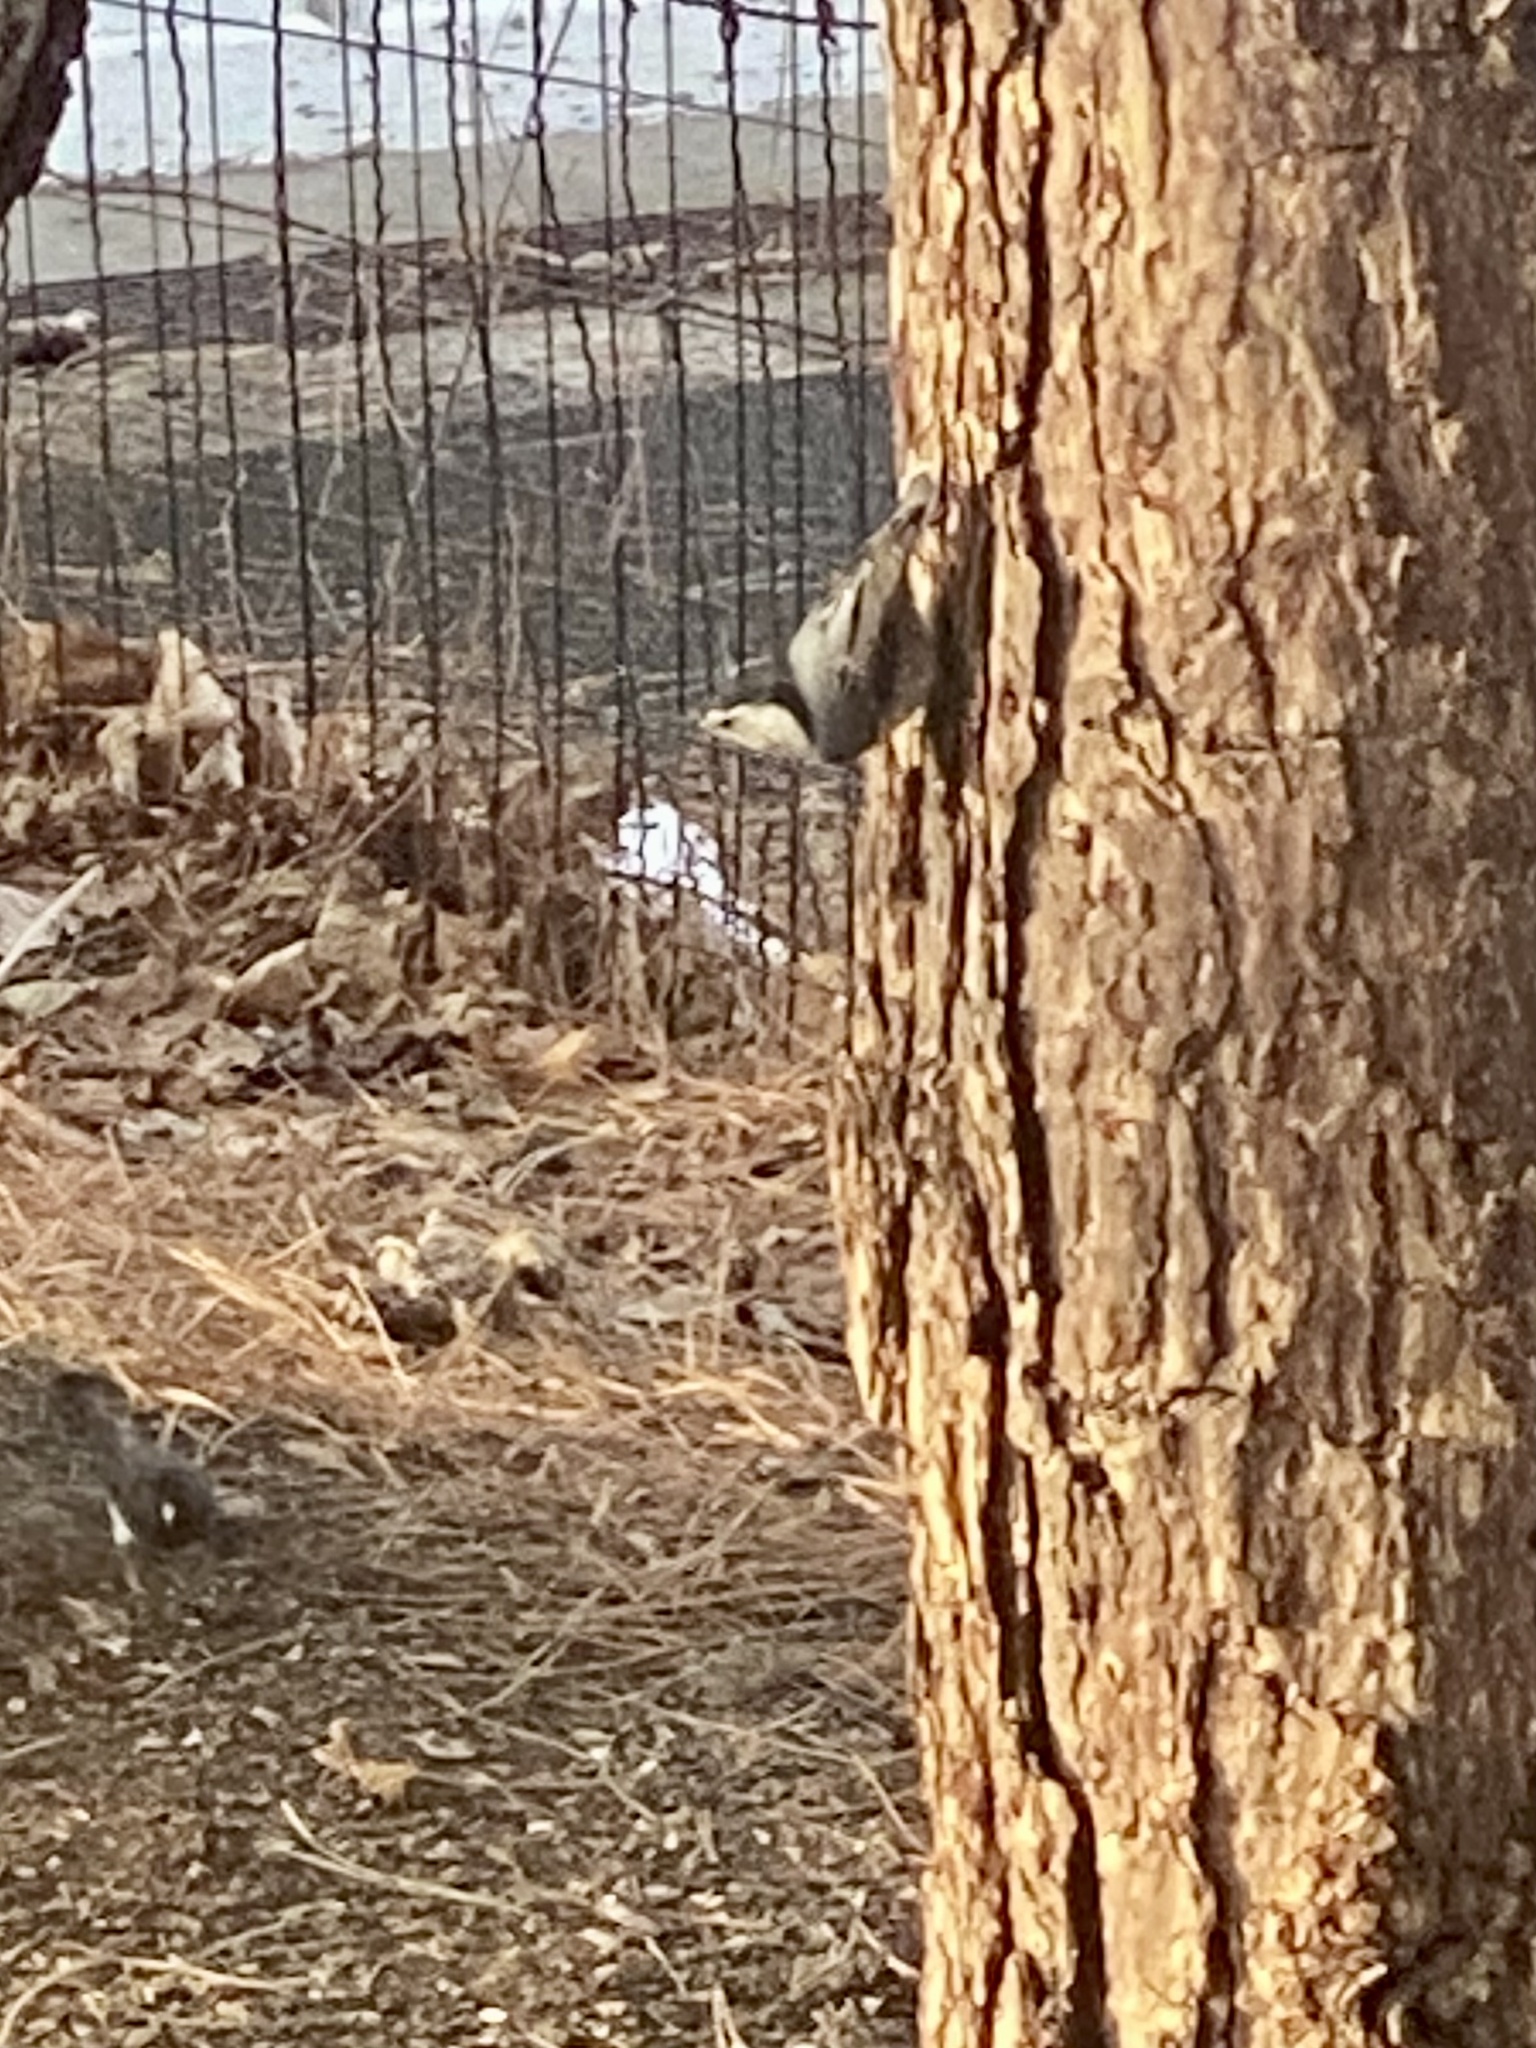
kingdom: Animalia
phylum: Chordata
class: Aves
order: Passeriformes
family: Sittidae
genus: Sitta
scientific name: Sitta carolinensis
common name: White-breasted nuthatch
